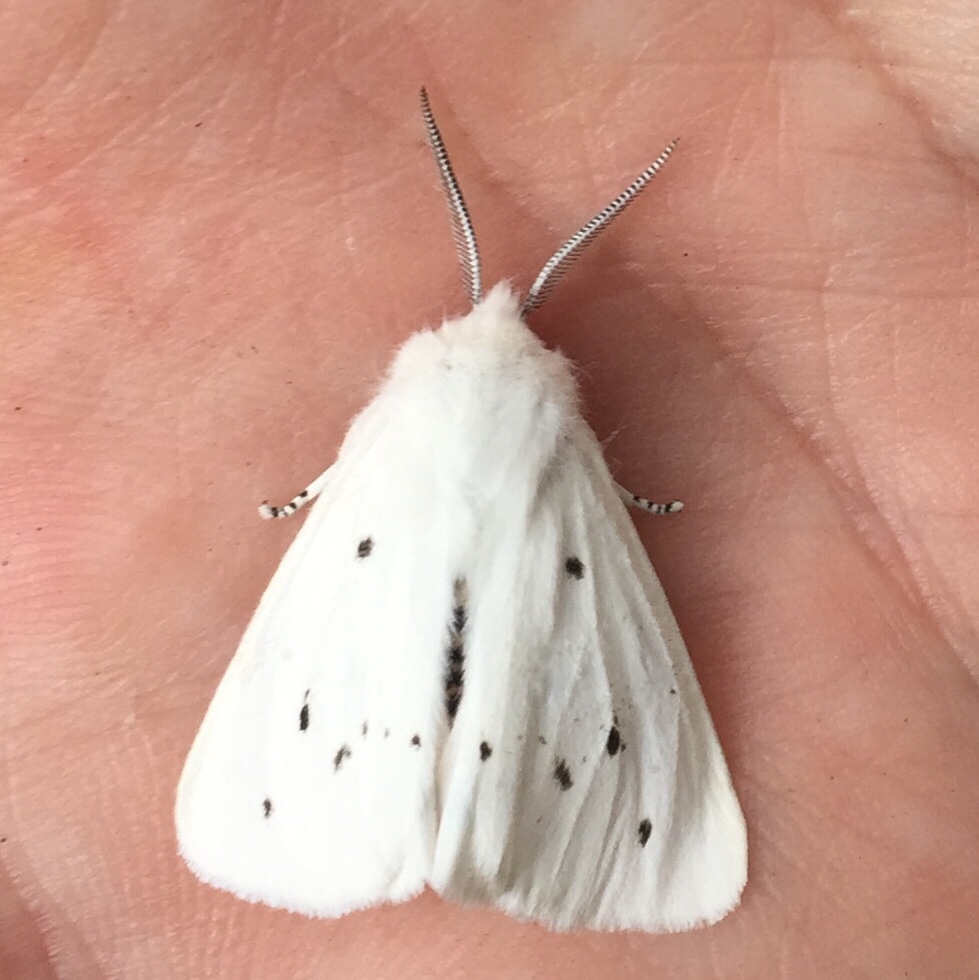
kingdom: Animalia
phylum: Arthropoda
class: Insecta
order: Lepidoptera
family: Erebidae
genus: Spilosoma
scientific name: Spilosoma virginica
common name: Virginia tiger moth
